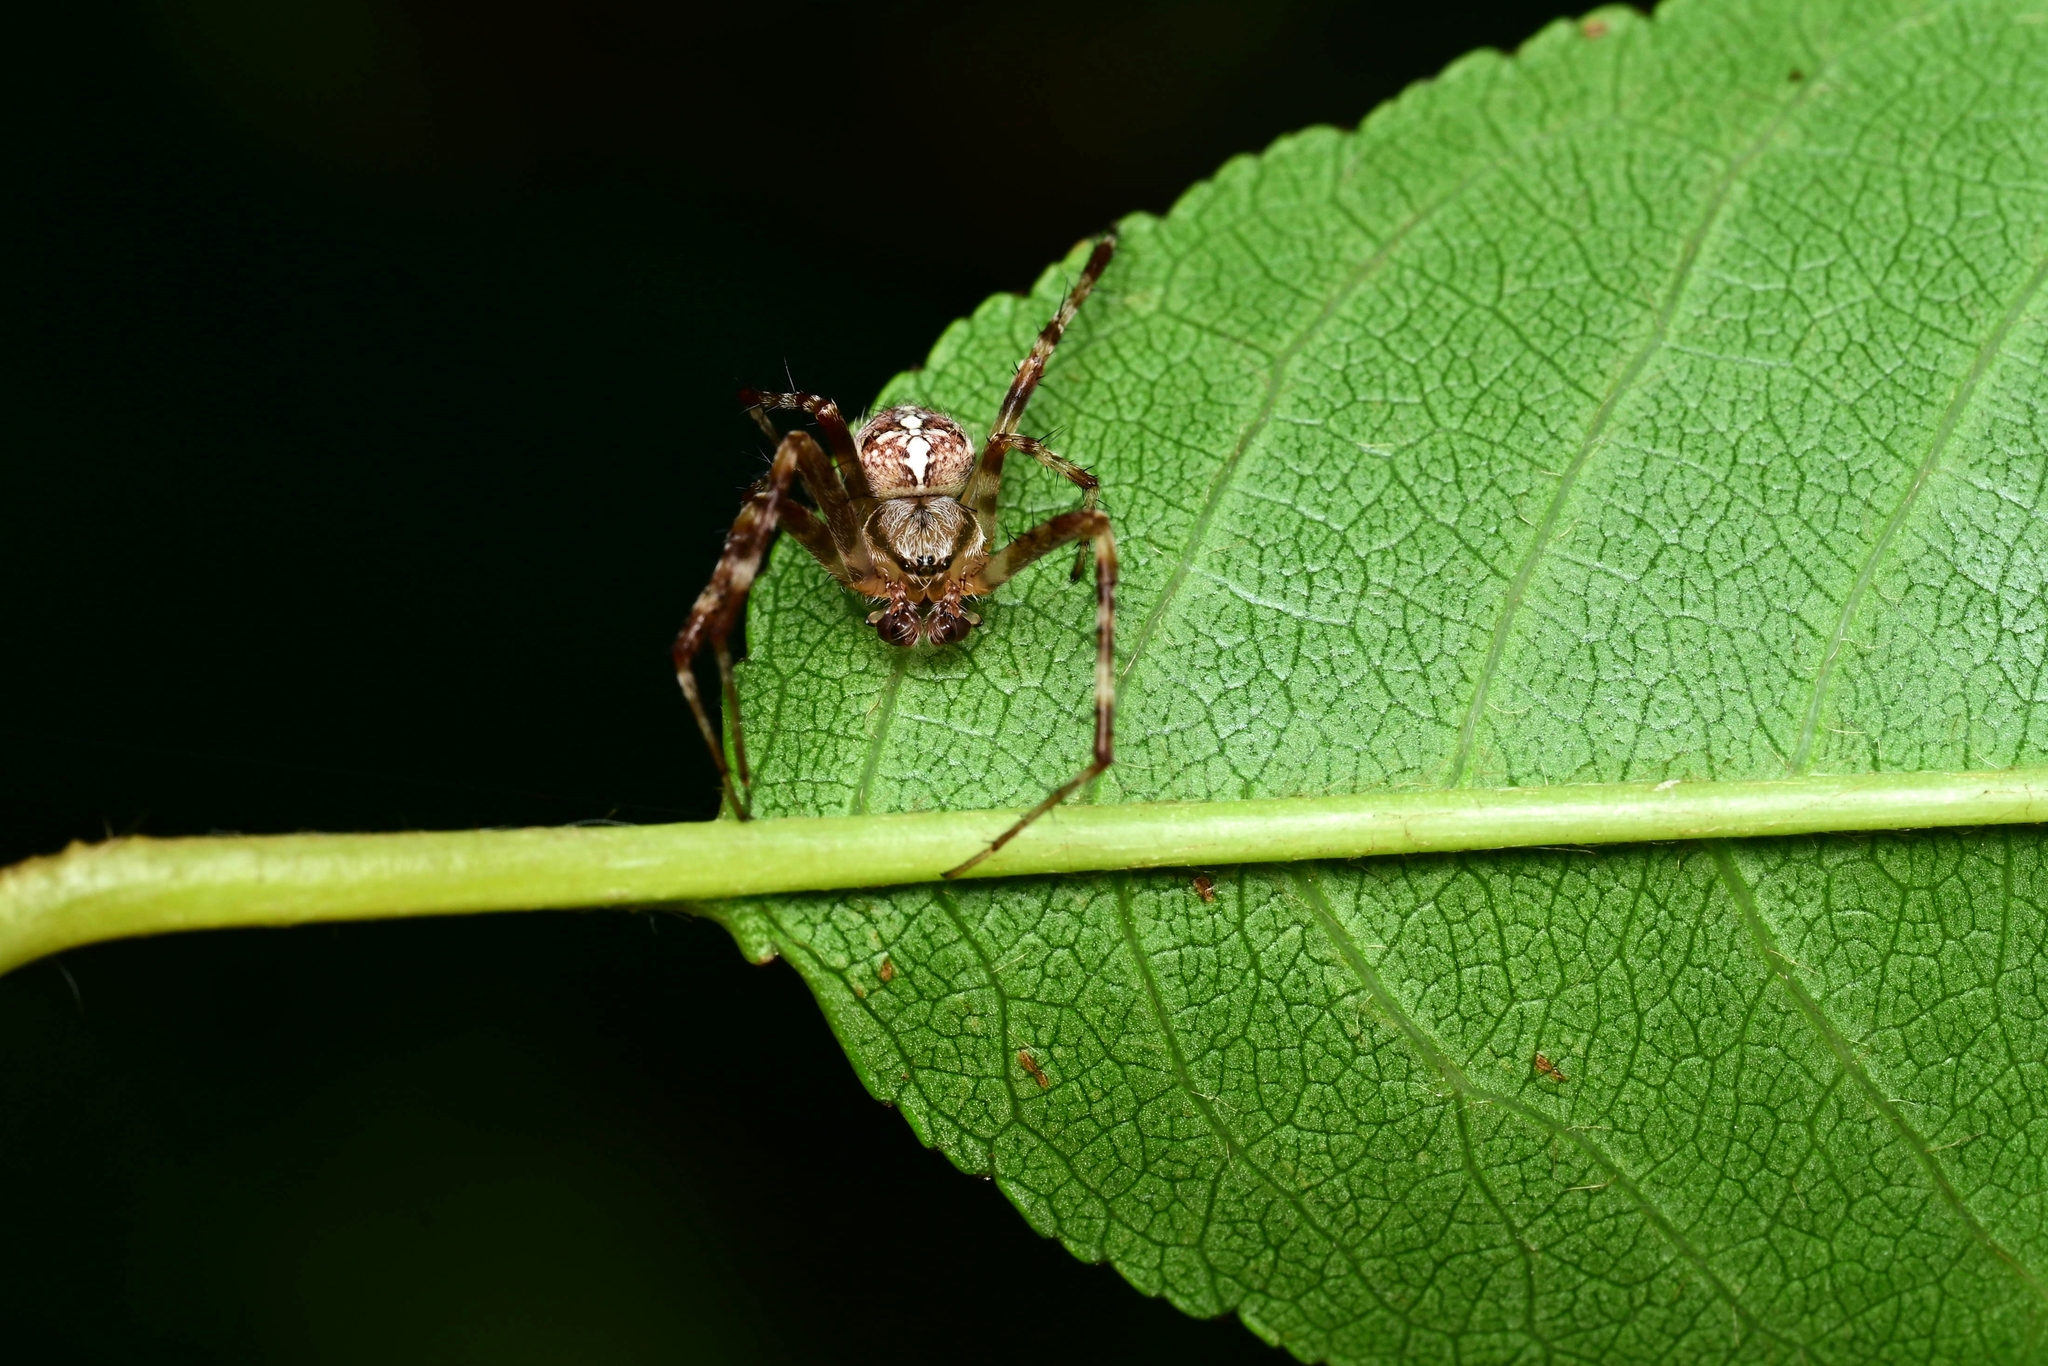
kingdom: Animalia
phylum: Arthropoda
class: Arachnida
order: Araneae
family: Araneidae
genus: Araneus
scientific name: Araneus diadematus
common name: Cross orbweaver
